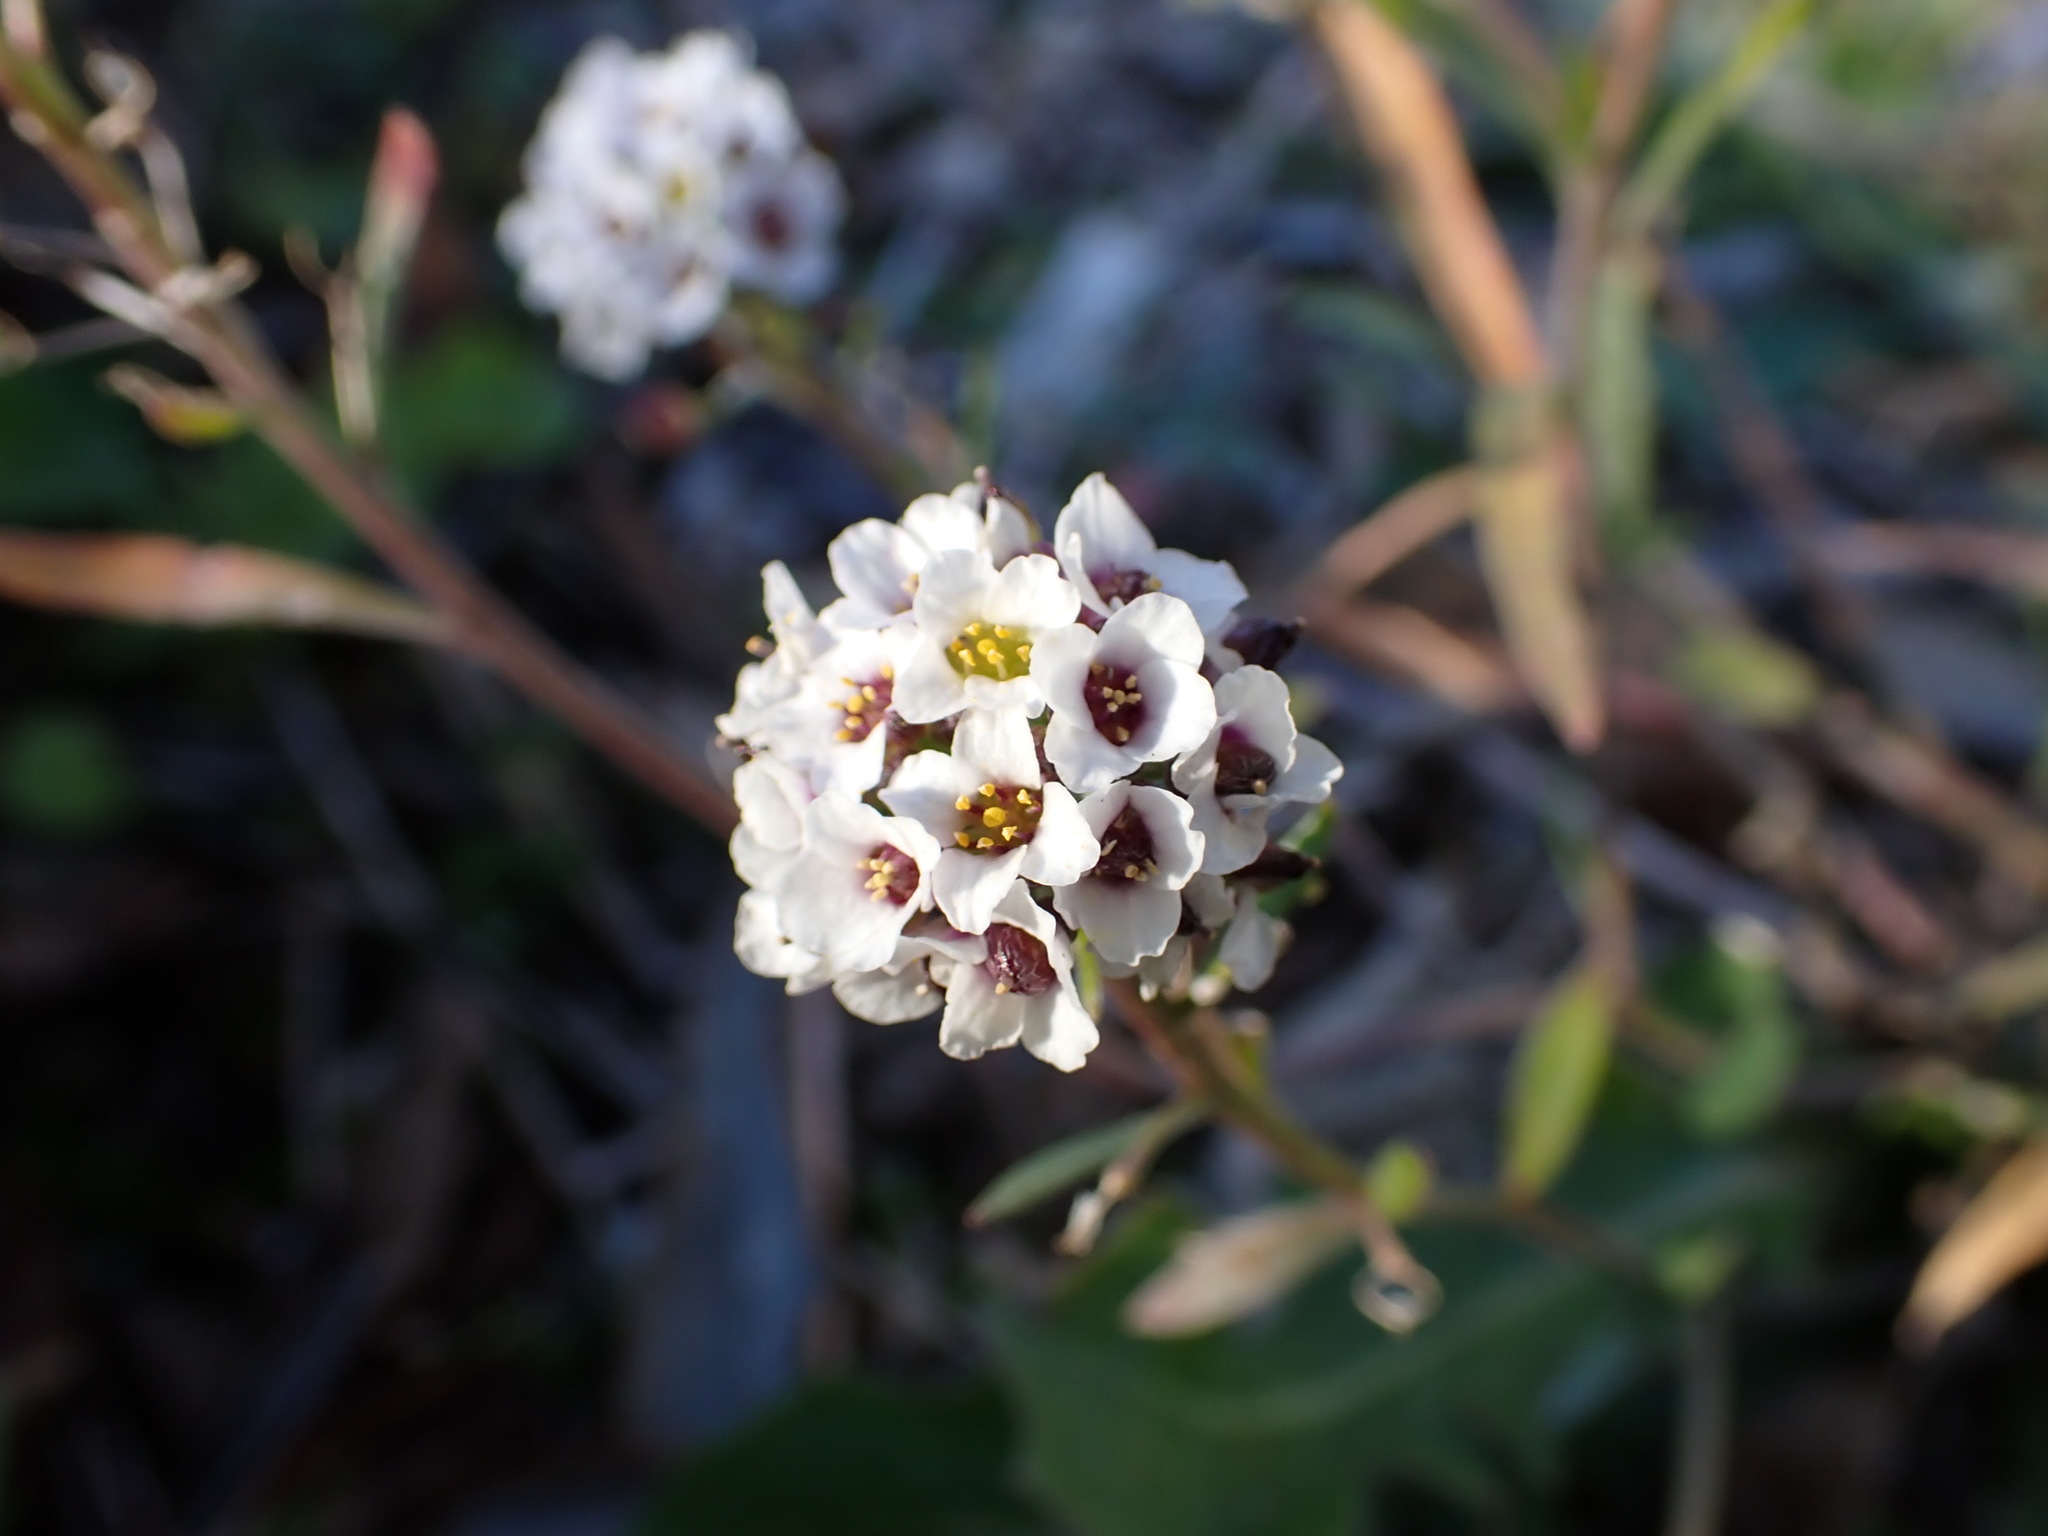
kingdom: Plantae
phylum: Tracheophyta
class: Magnoliopsida
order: Brassicales
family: Brassicaceae
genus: Lobularia
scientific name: Lobularia maritima
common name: Sweet alison
